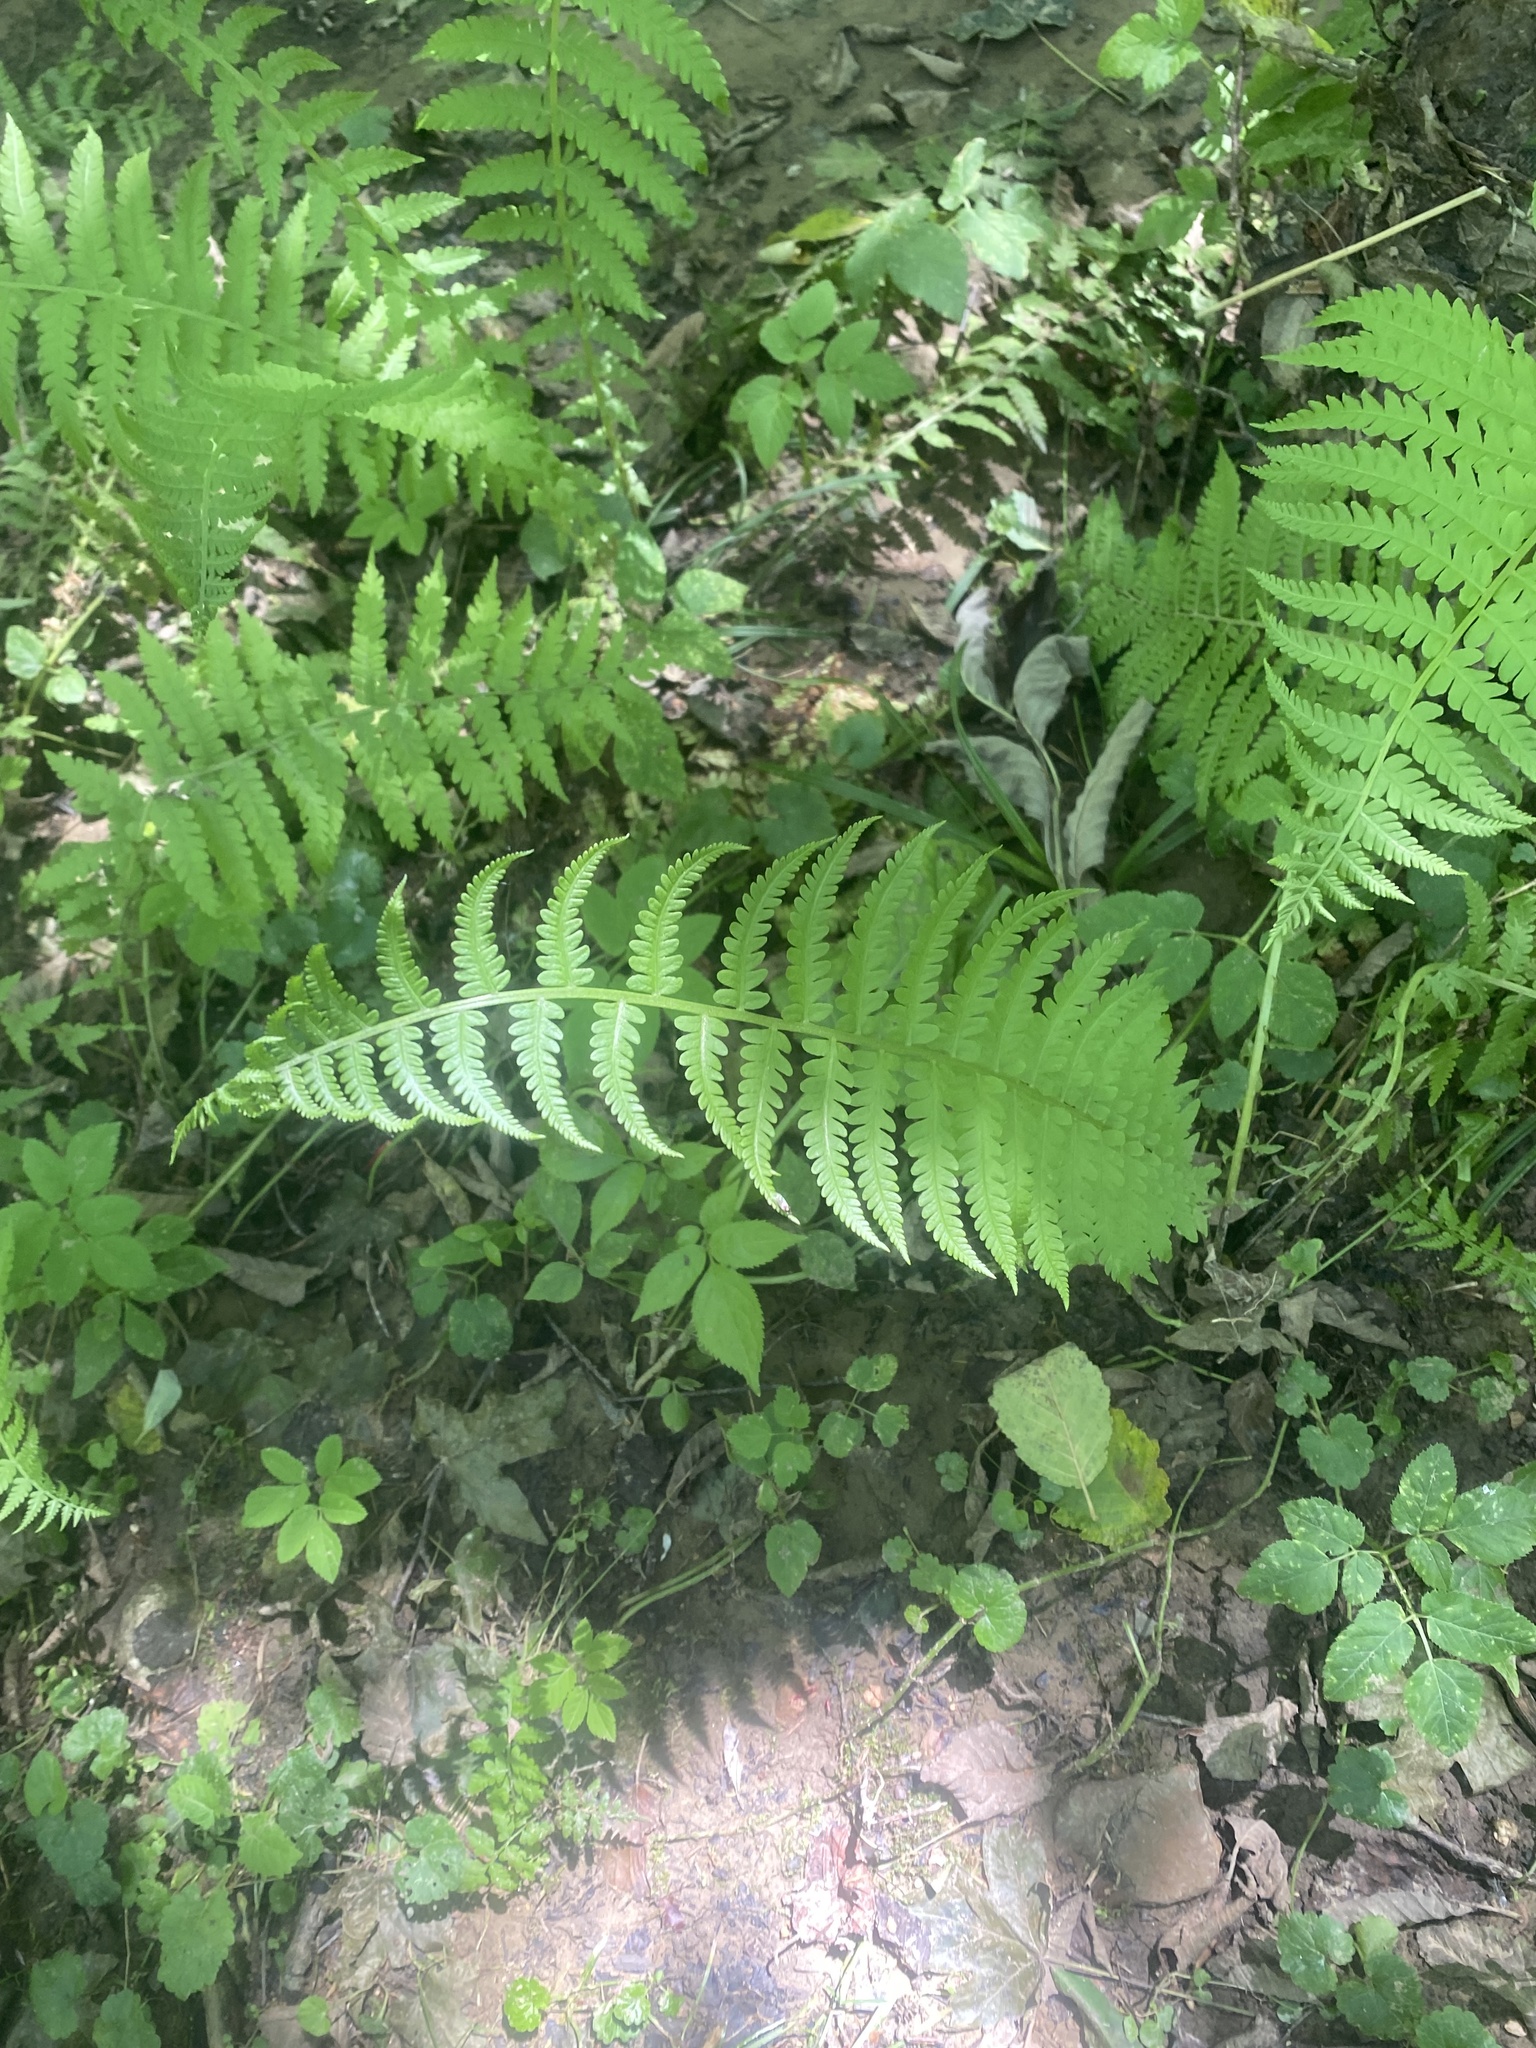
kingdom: Plantae
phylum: Tracheophyta
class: Polypodiopsida
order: Polypodiales
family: Onocleaceae
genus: Matteuccia
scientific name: Matteuccia struthiopteris
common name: Ostrich fern
